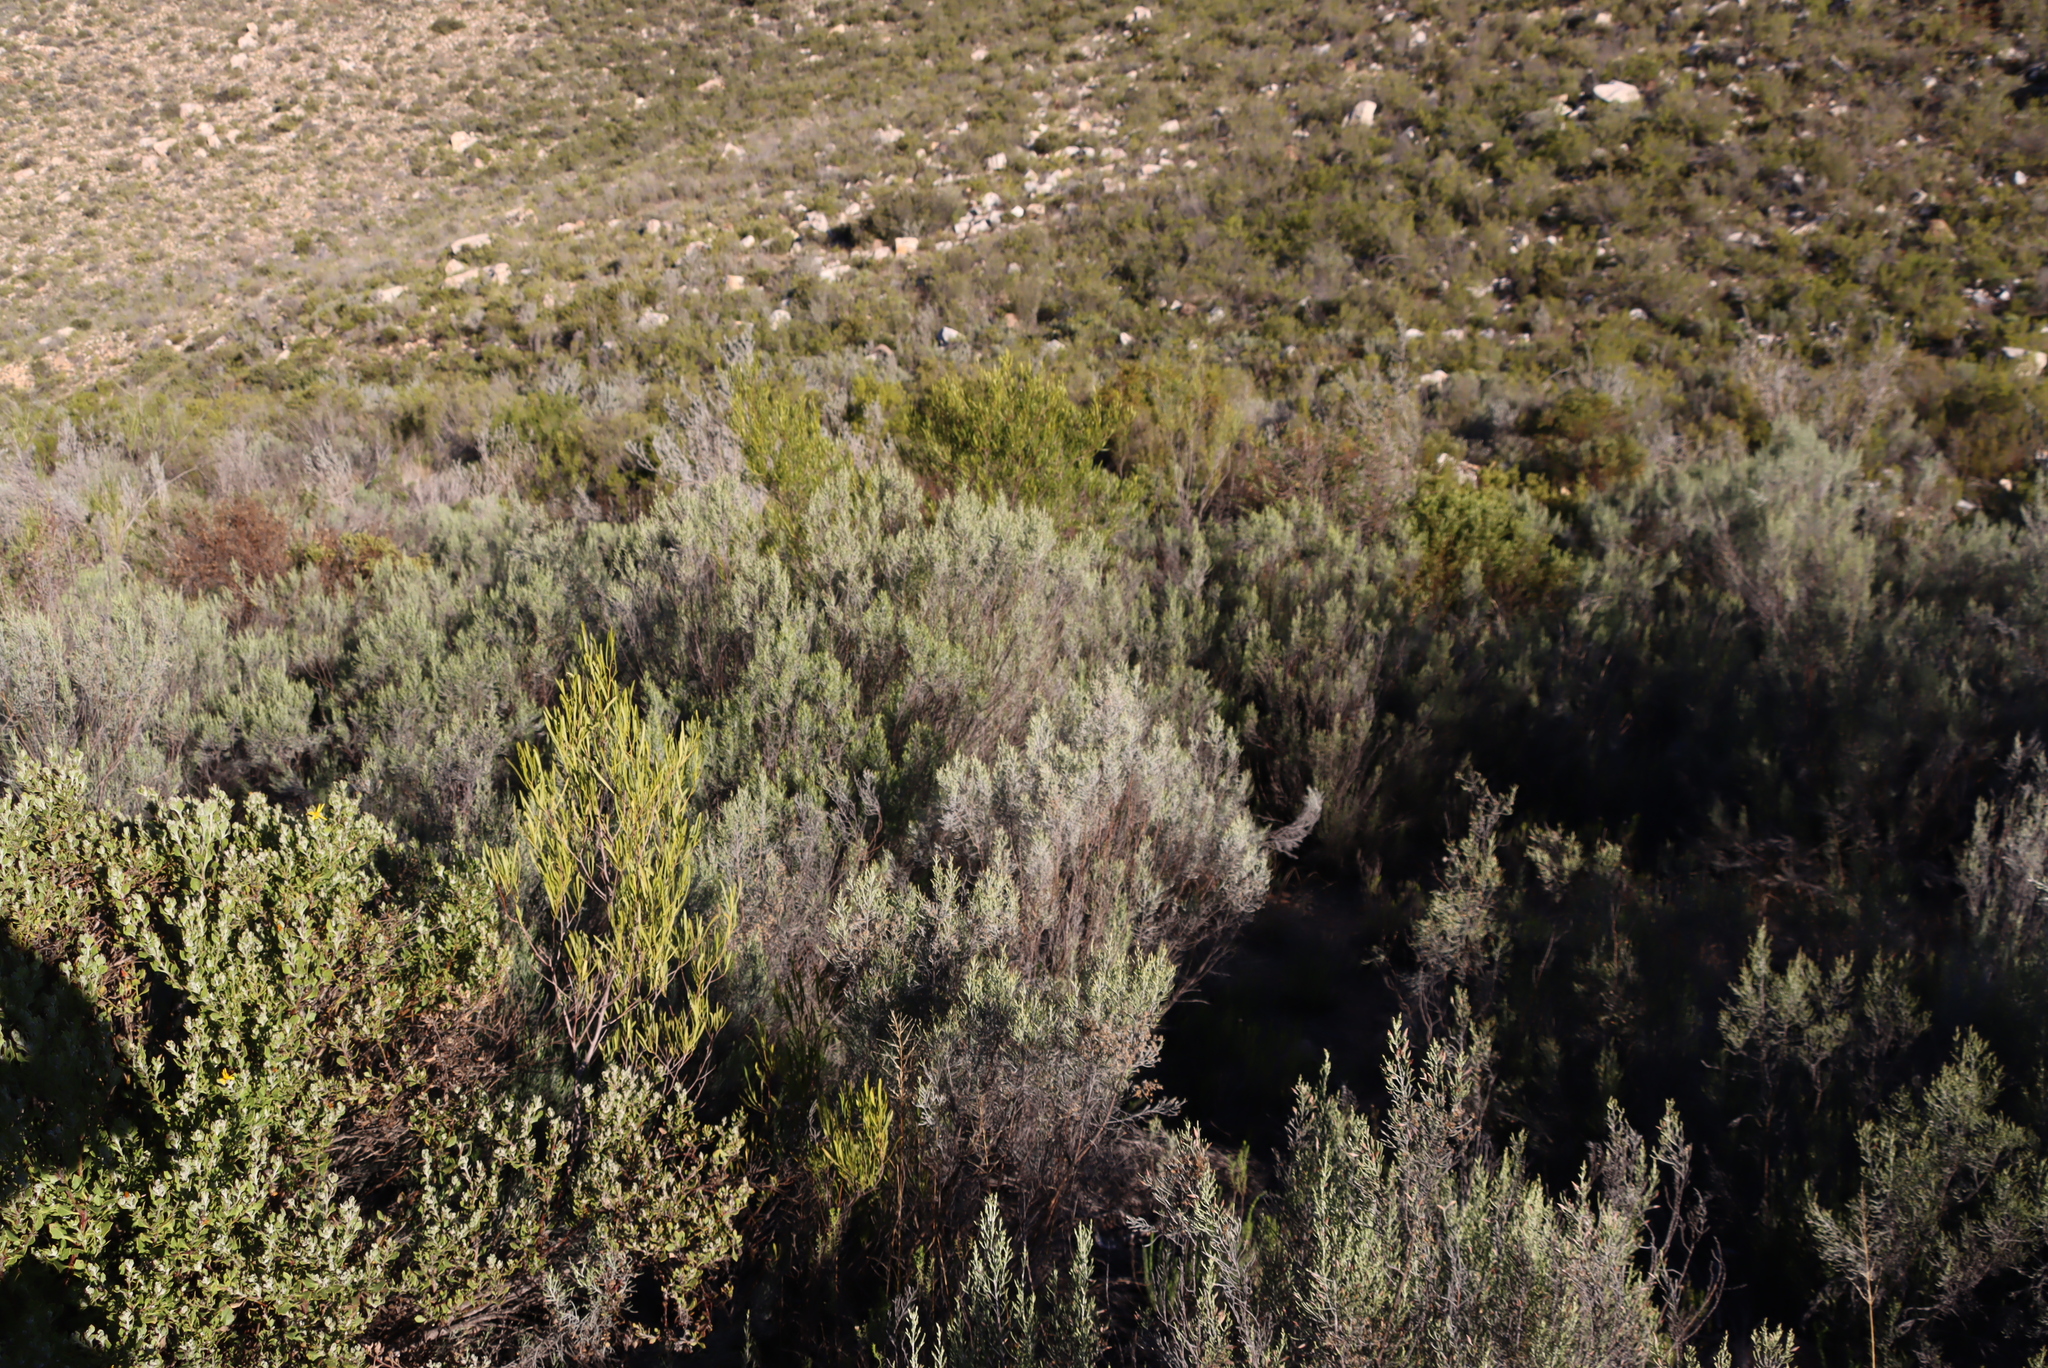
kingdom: Plantae
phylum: Tracheophyta
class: Magnoliopsida
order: Asterales
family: Asteraceae
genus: Dicerothamnus
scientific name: Dicerothamnus rhinocerotis
